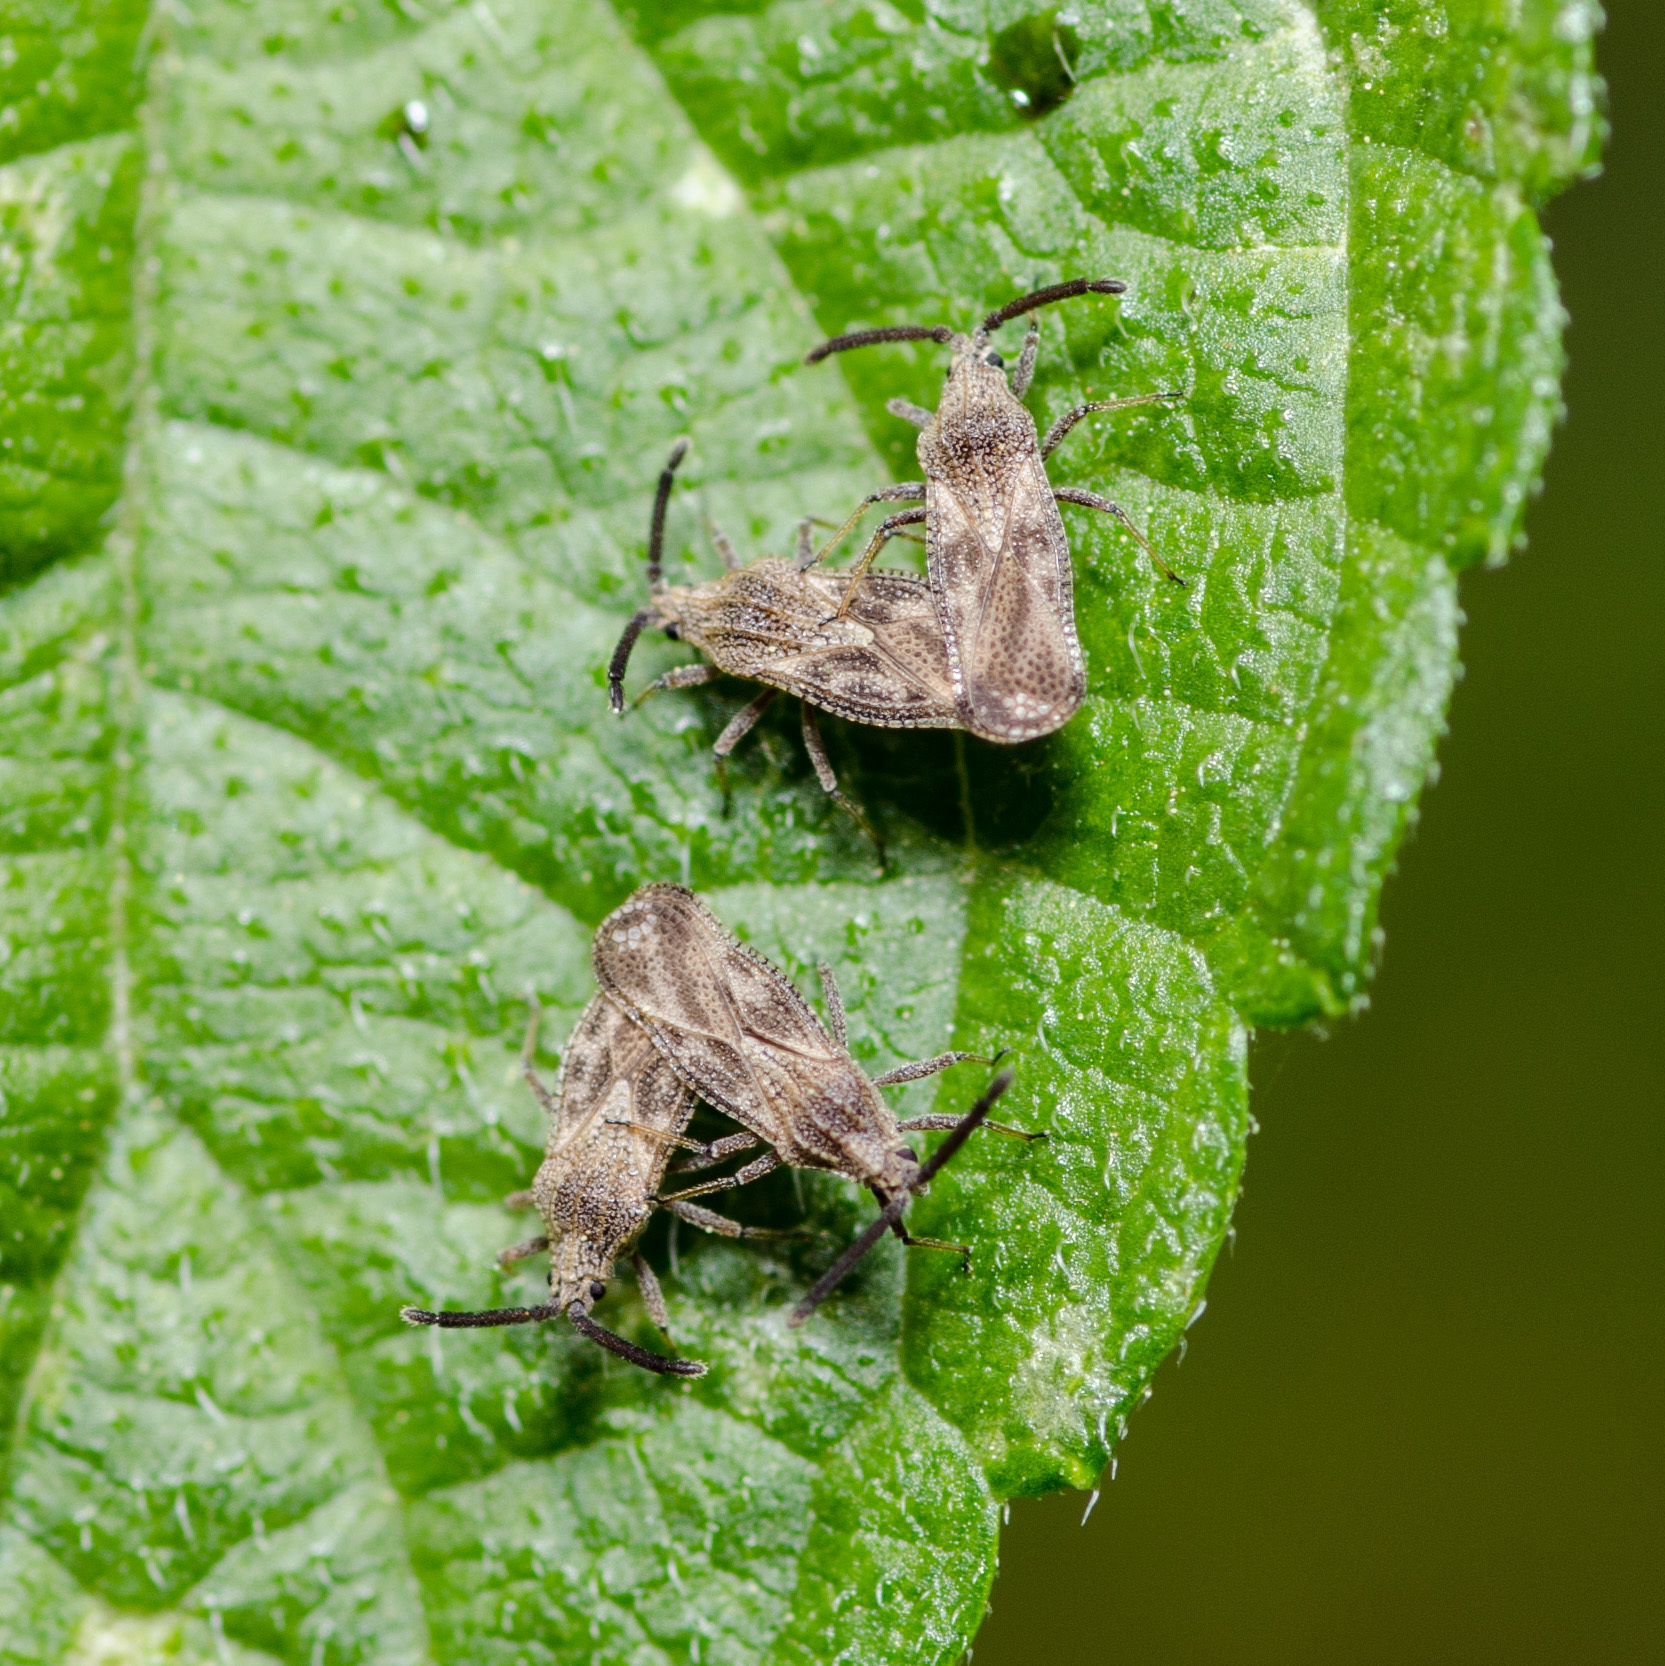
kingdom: Animalia
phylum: Arthropoda
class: Insecta
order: Hemiptera
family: Tingidae
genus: Teleonemia
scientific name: Teleonemia scrupulosa
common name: Lantana lace bug
